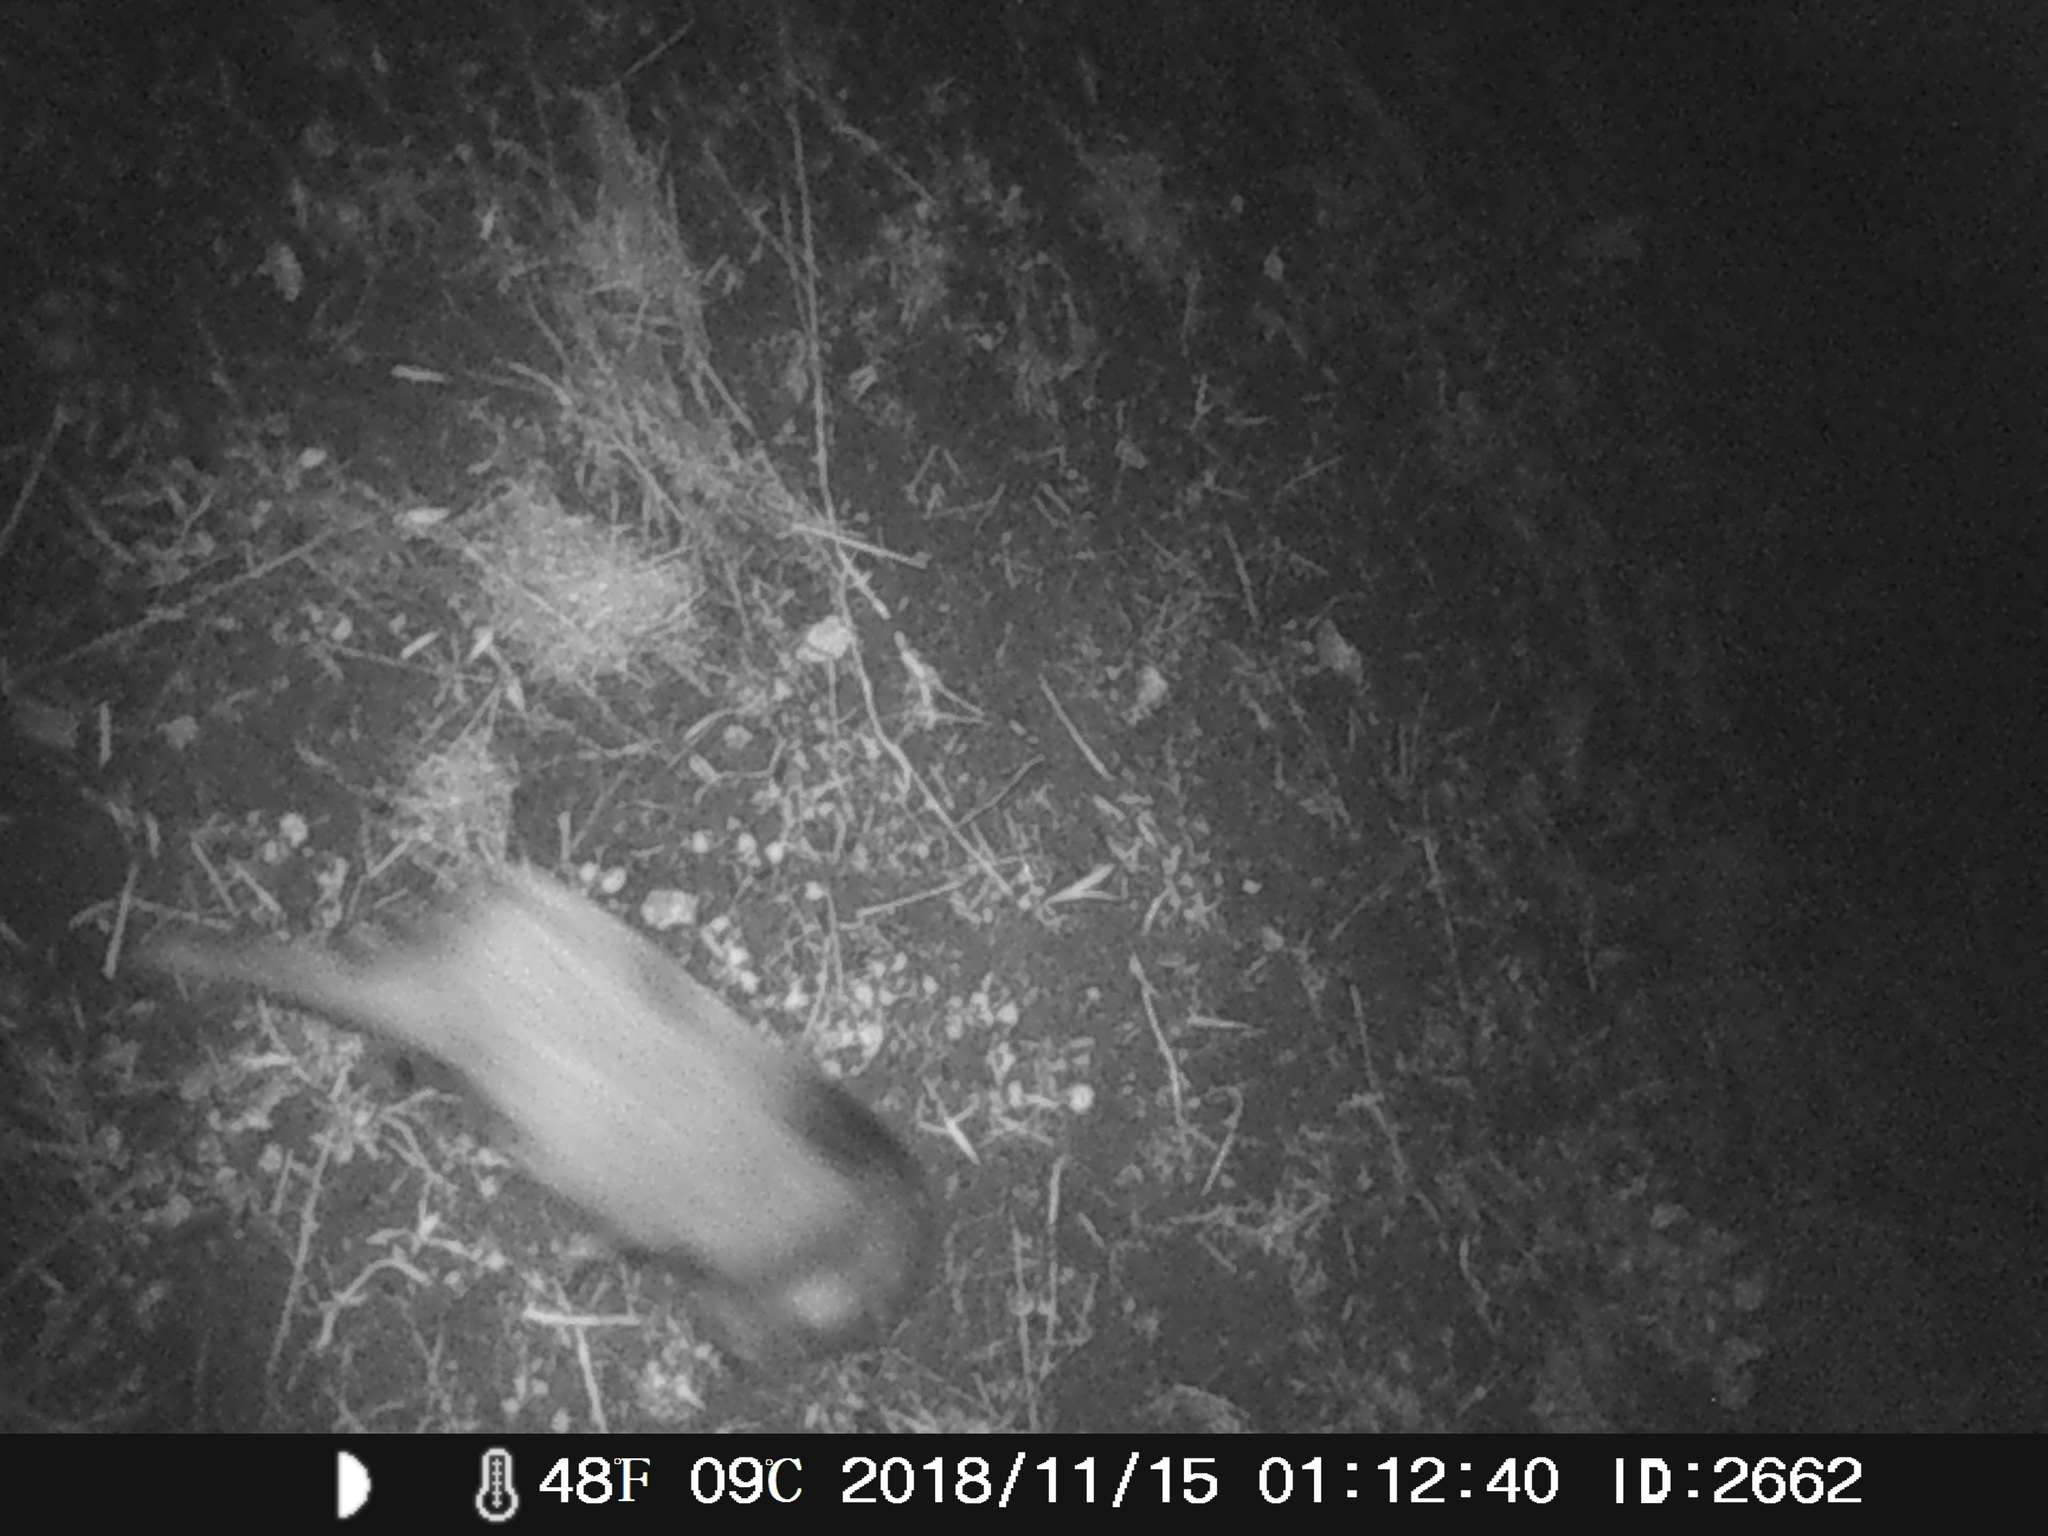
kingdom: Animalia
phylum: Chordata
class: Mammalia
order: Artiodactyla
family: Suidae
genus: Sus
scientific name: Sus scrofa
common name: Wild boar
